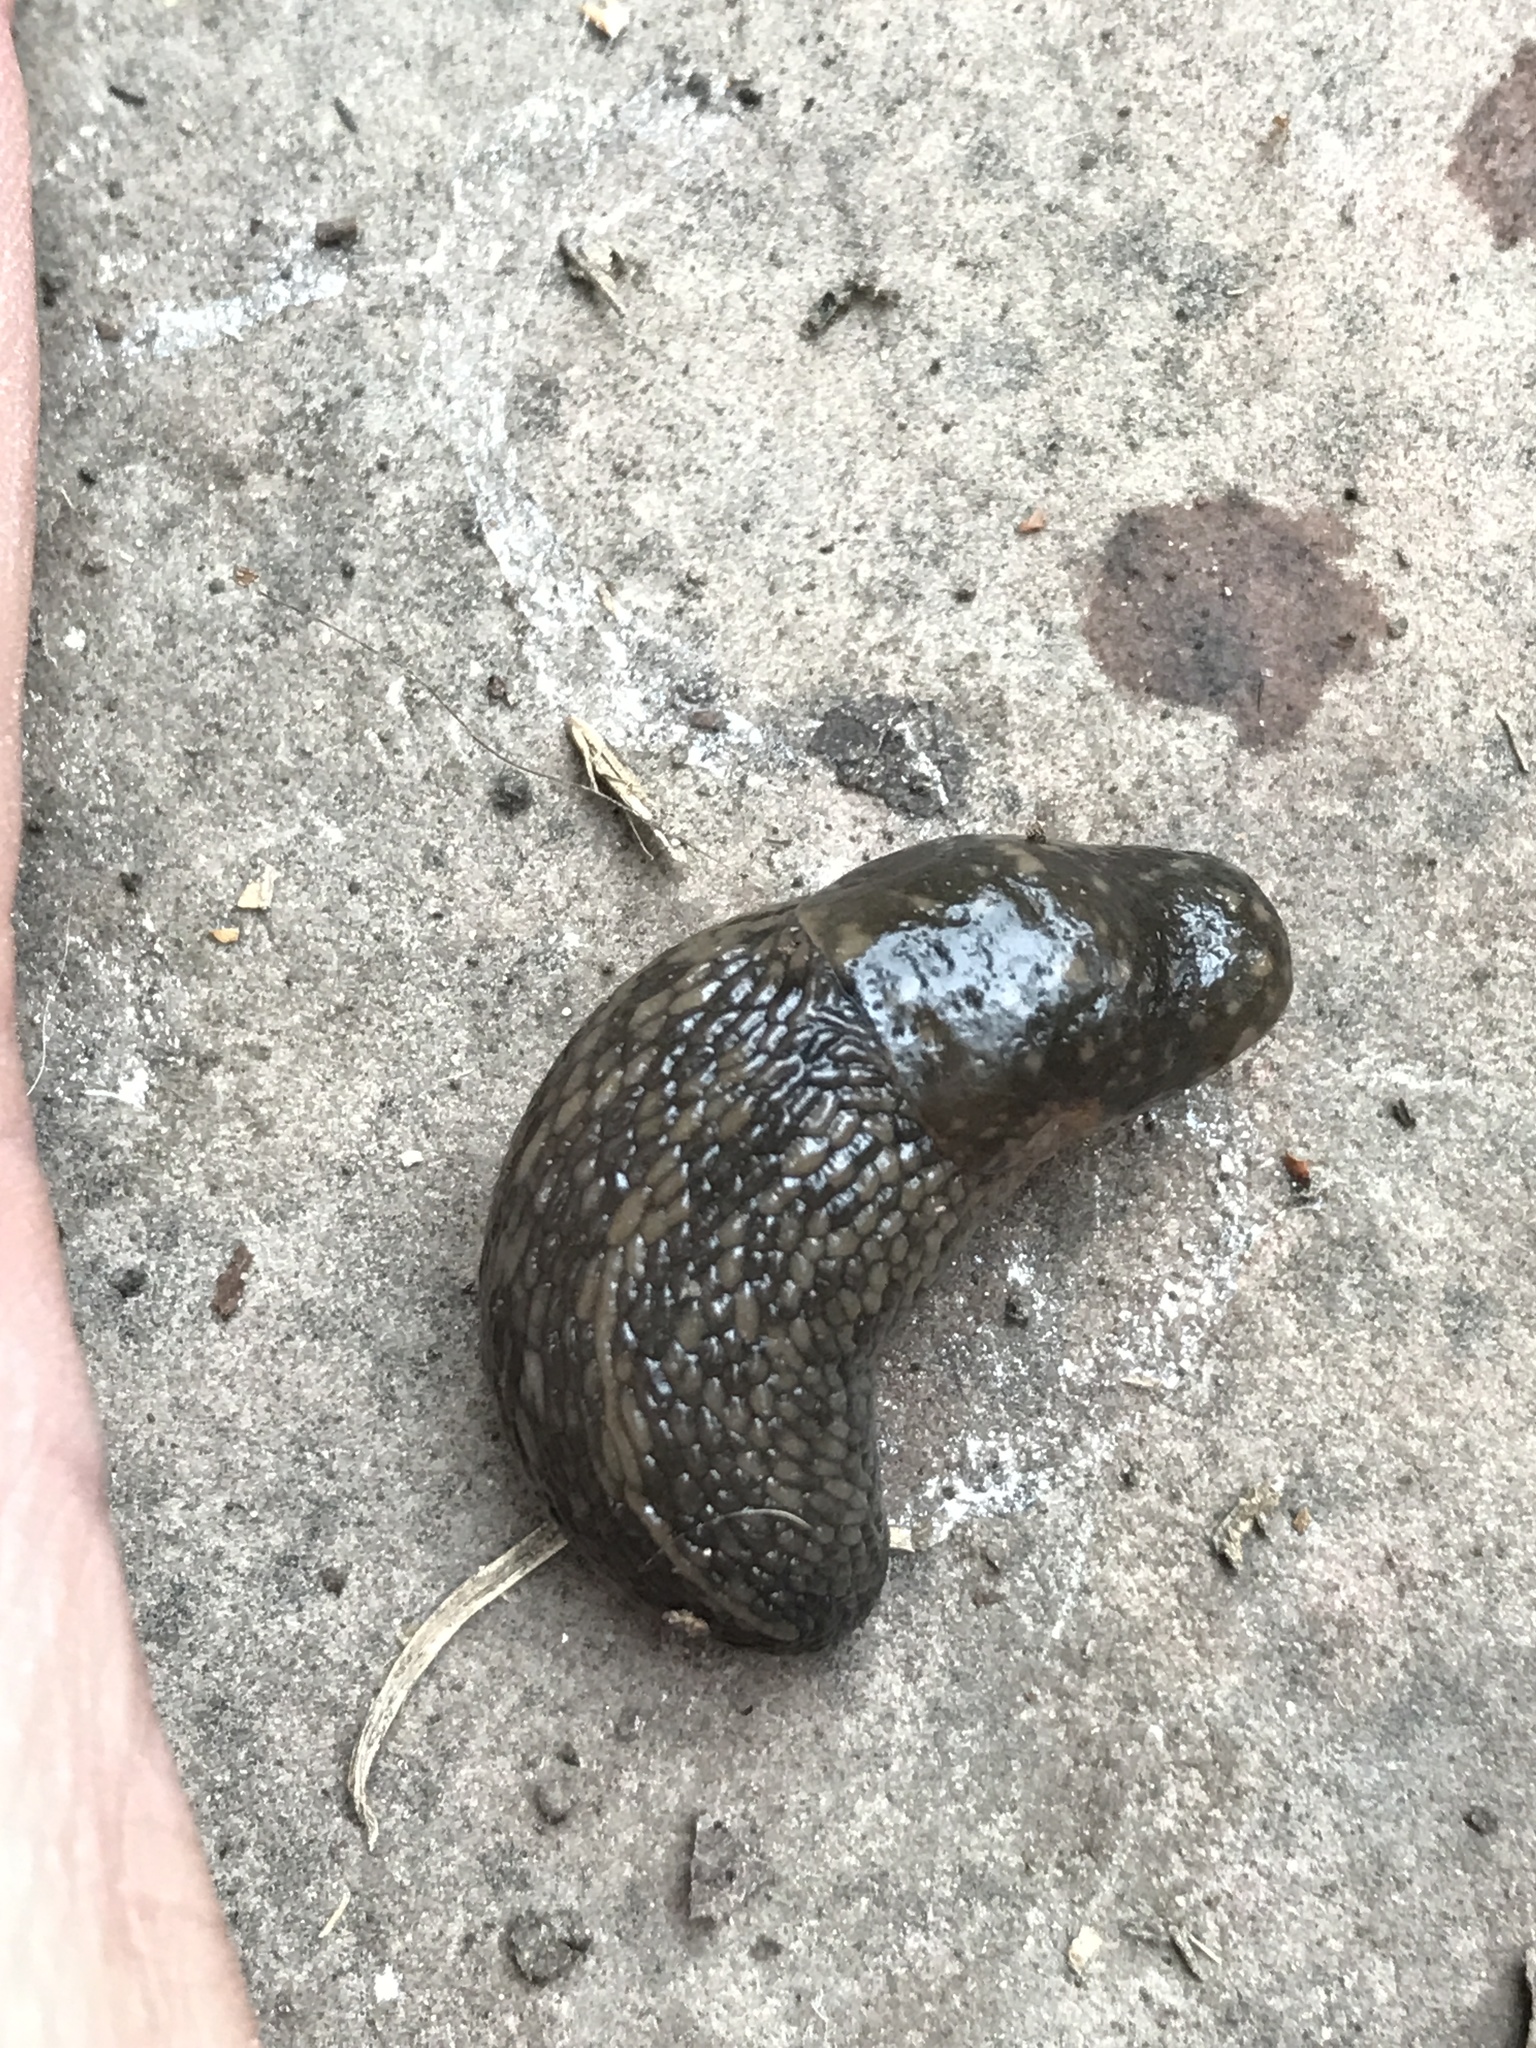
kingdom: Animalia
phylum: Mollusca
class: Gastropoda
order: Stylommatophora
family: Limacidae
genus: Limacus
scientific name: Limacus flavus
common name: Yellow gardenslug
